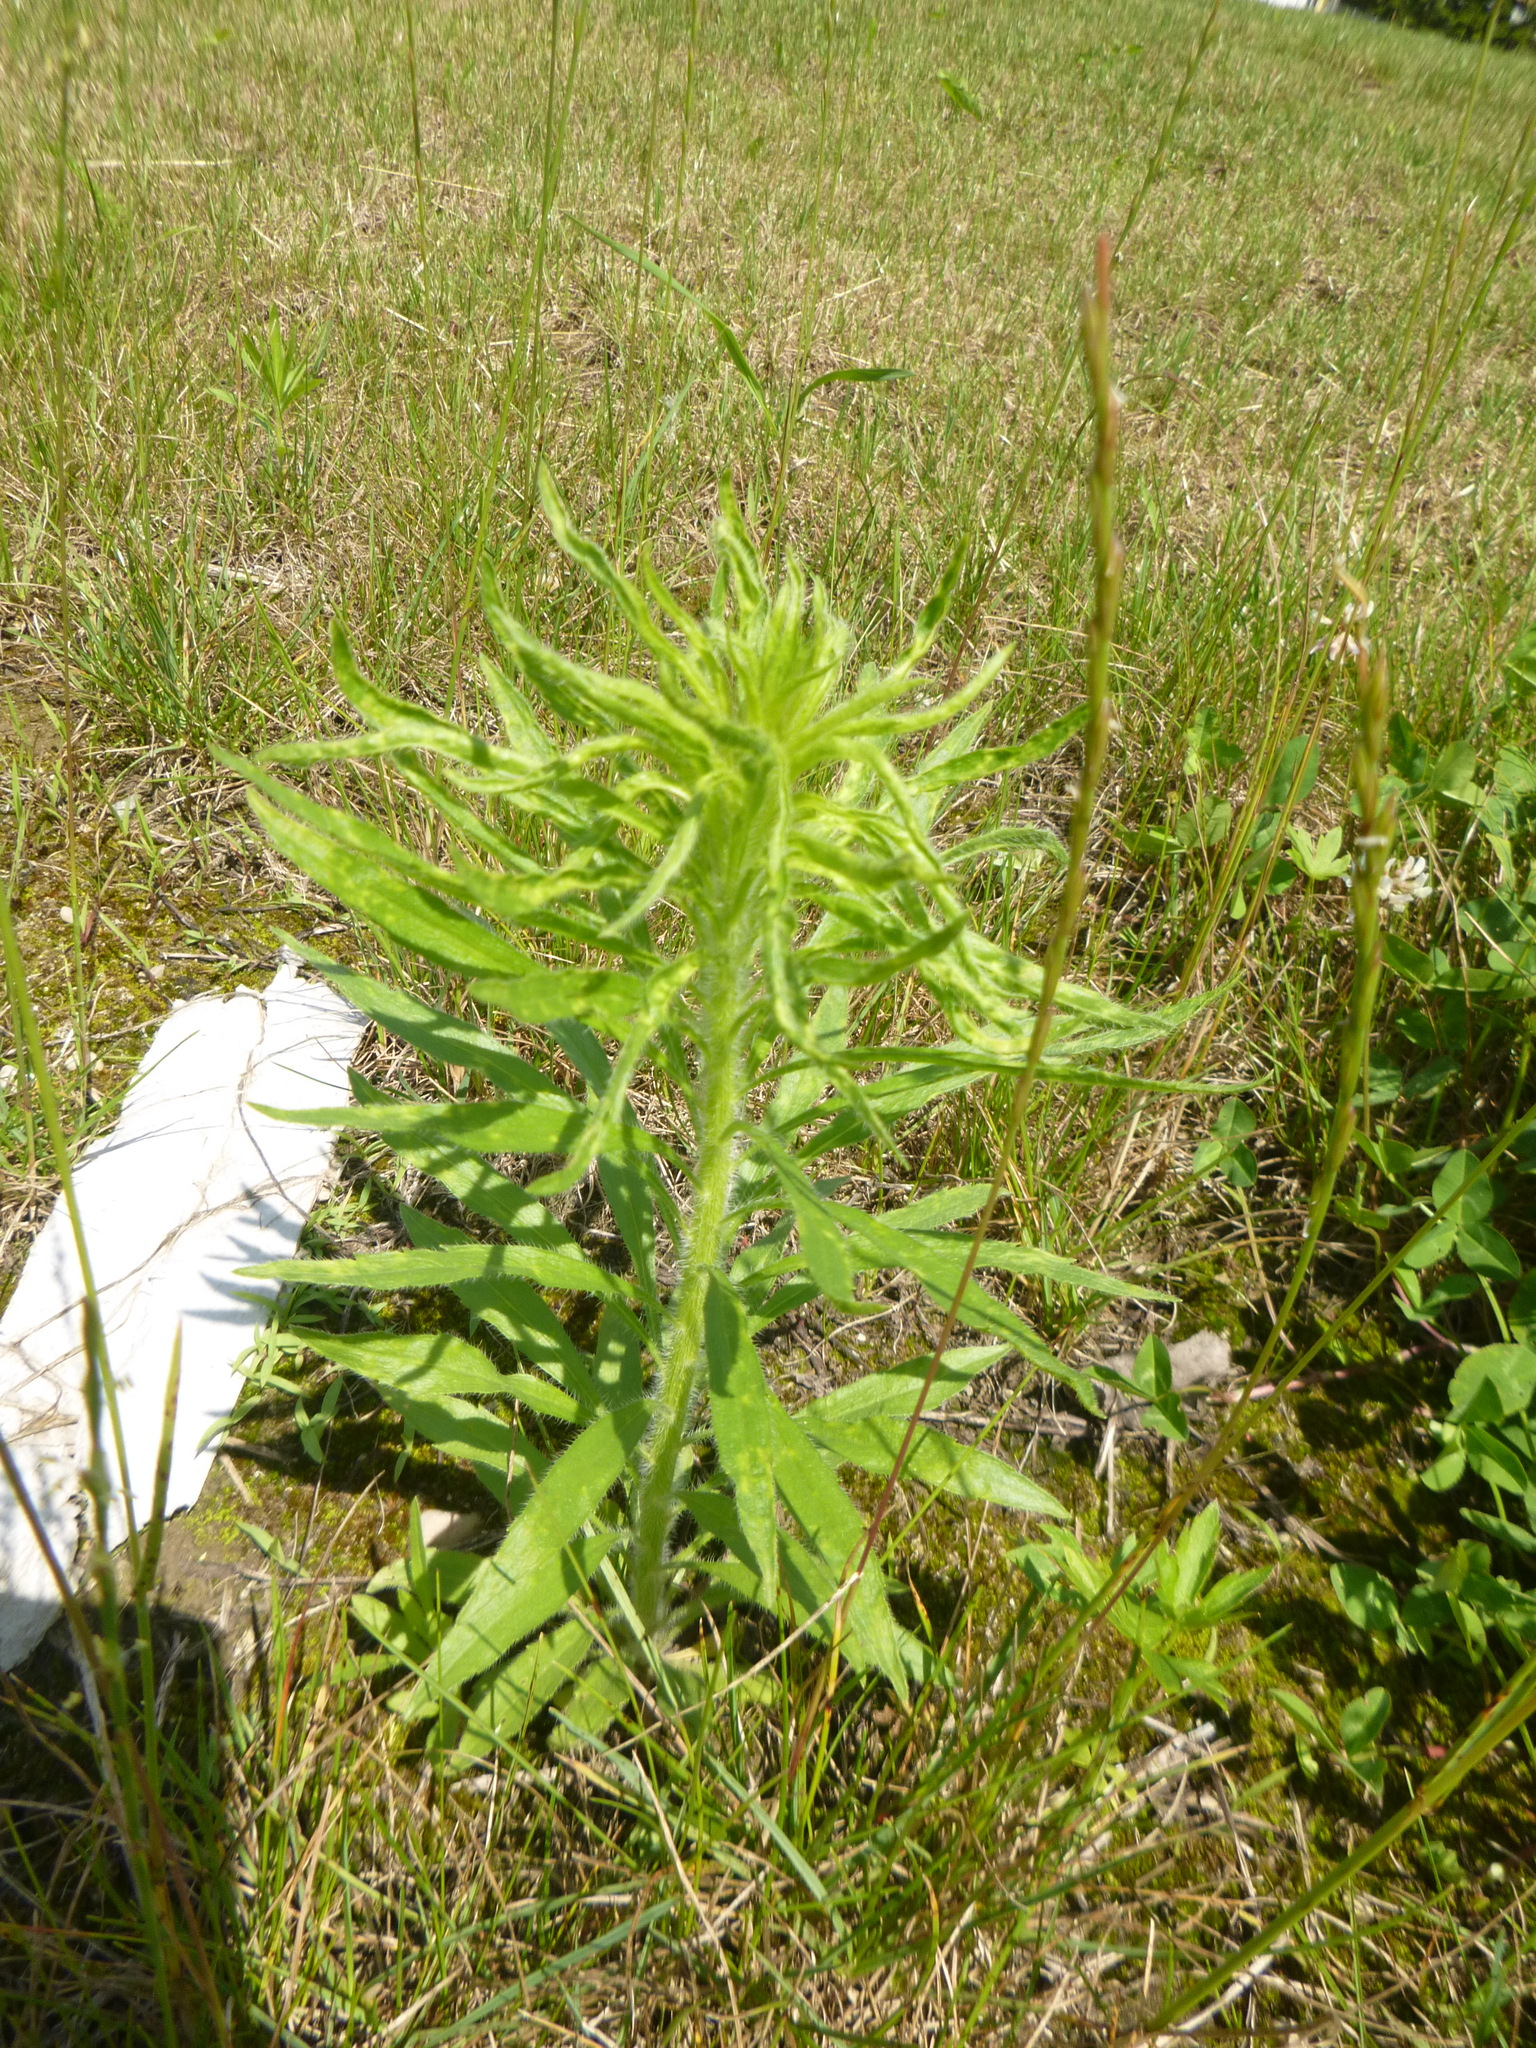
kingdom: Plantae
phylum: Tracheophyta
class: Magnoliopsida
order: Asterales
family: Asteraceae
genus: Erigeron
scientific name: Erigeron canadensis
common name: Canadian fleabane
